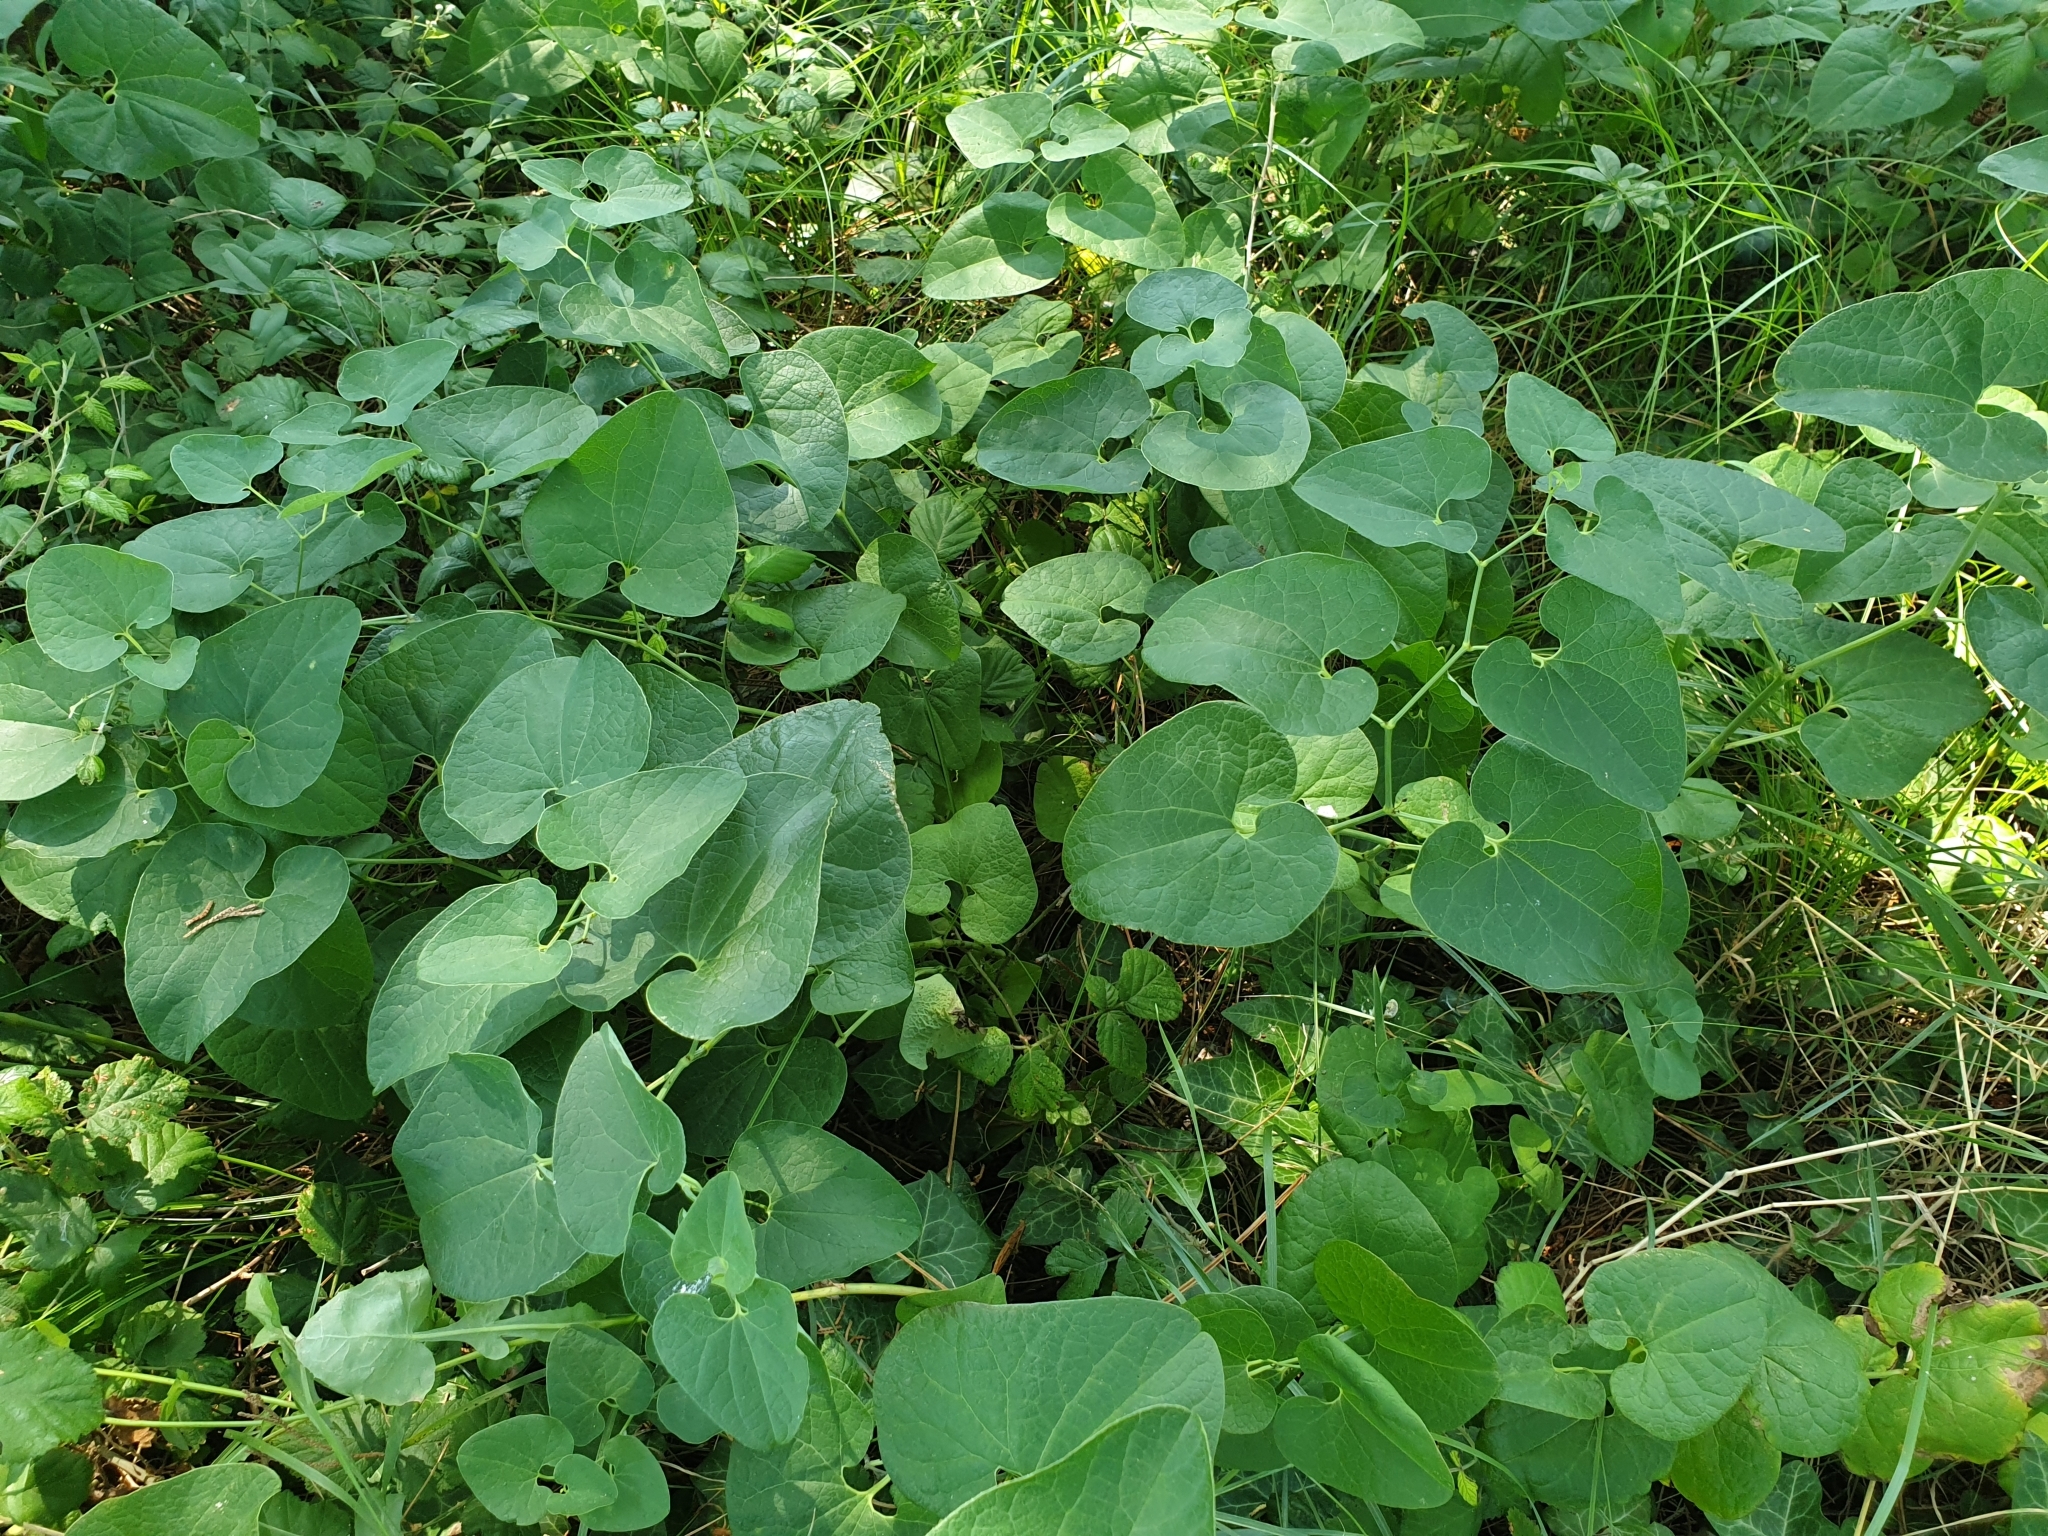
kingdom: Plantae
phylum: Tracheophyta
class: Magnoliopsida
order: Piperales
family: Aristolochiaceae
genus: Aristolochia
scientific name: Aristolochia clematitis
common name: Birthwort
